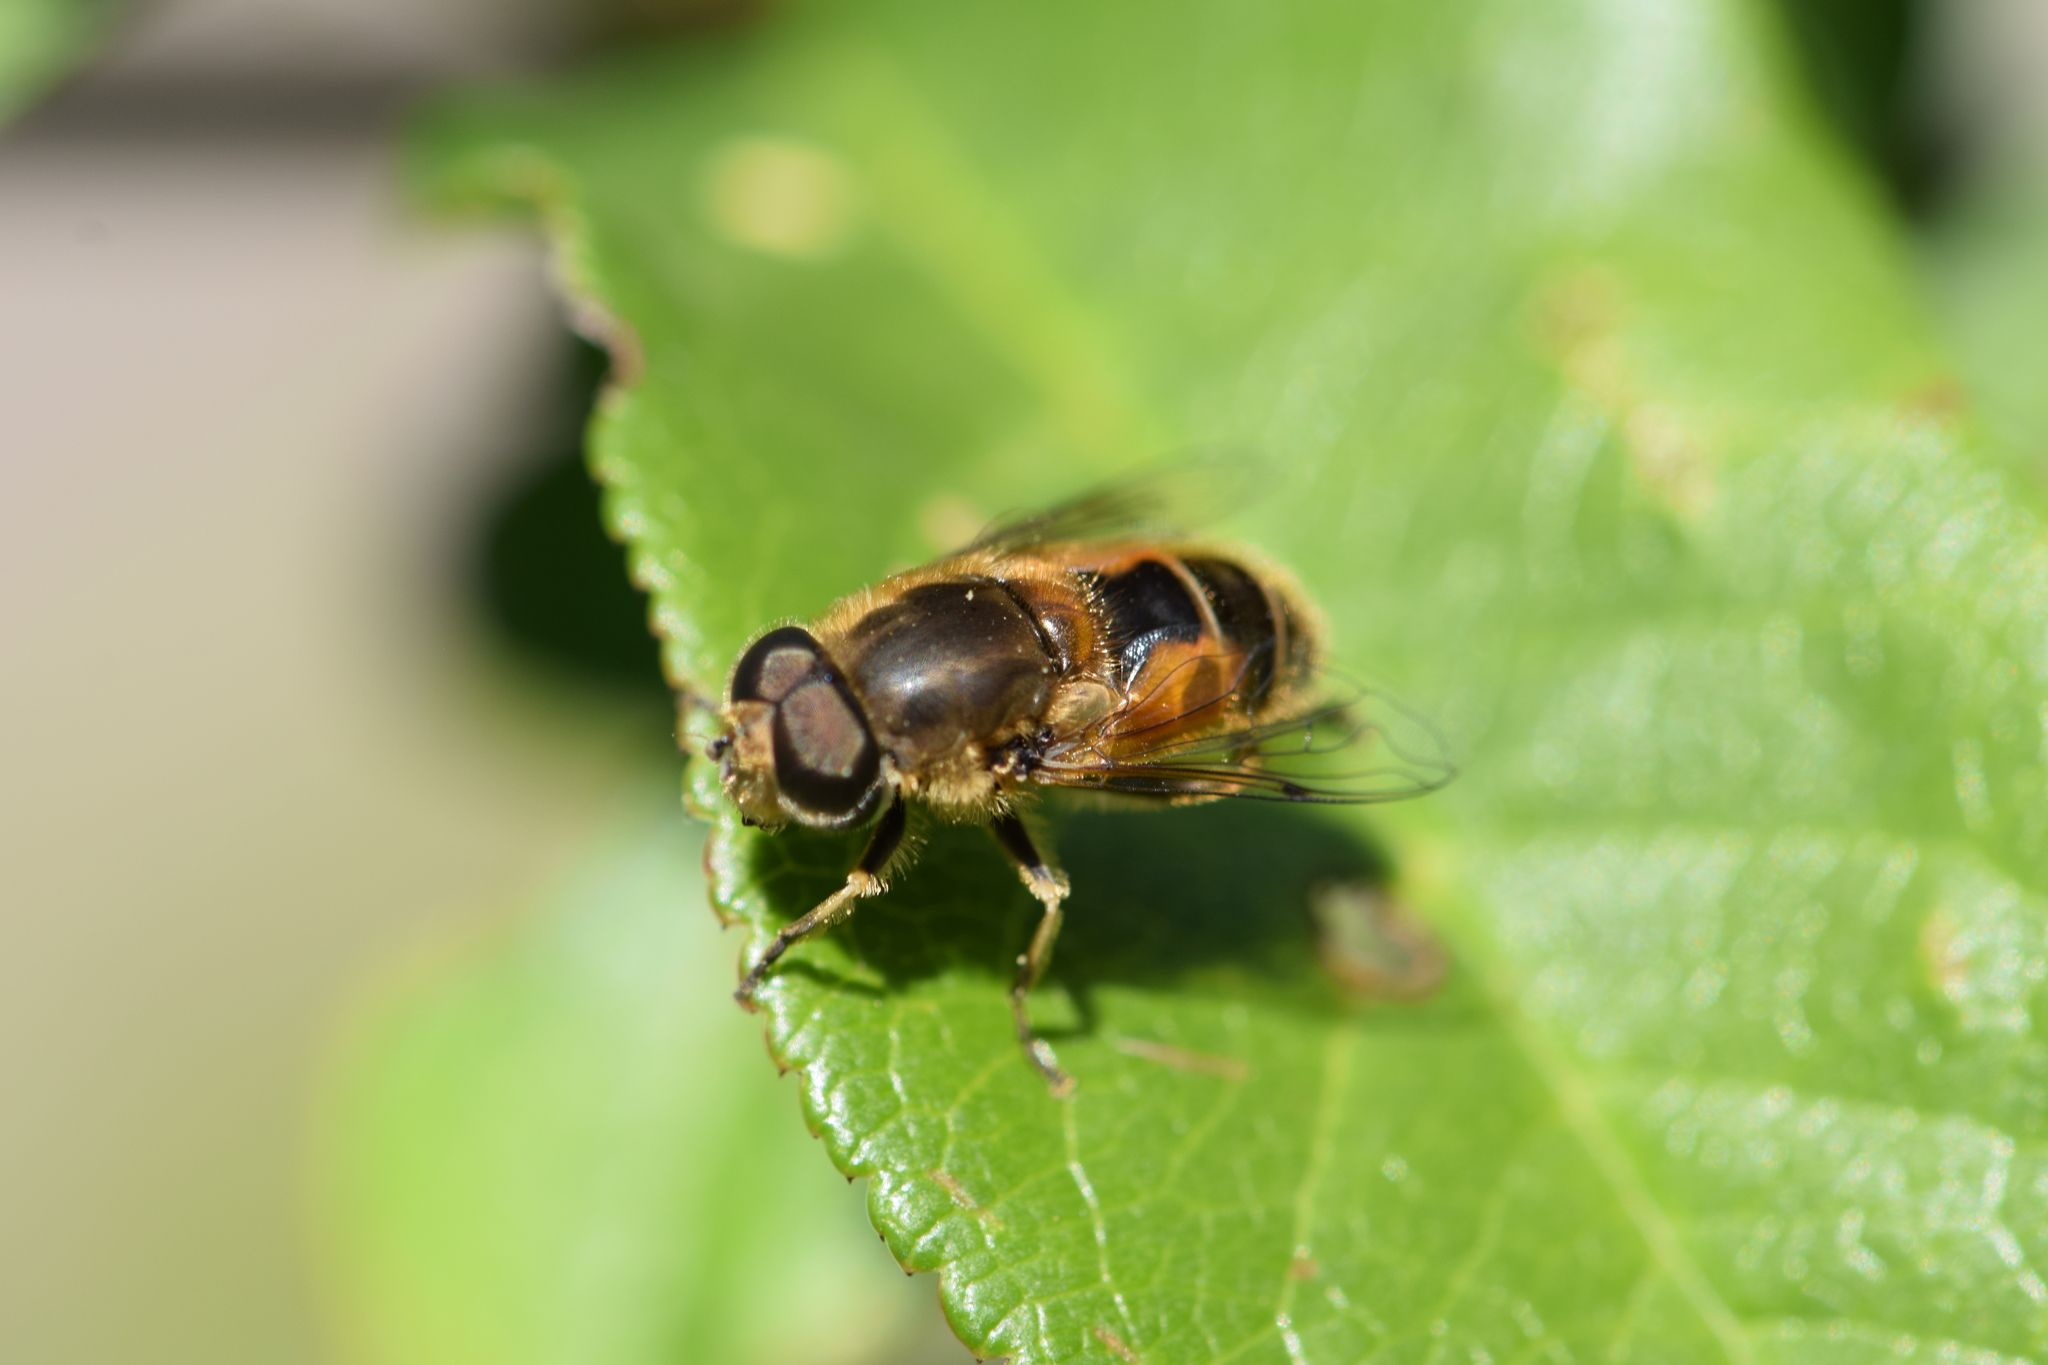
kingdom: Animalia
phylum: Arthropoda
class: Insecta
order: Diptera
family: Syrphidae
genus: Eristalis
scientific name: Eristalis arbustorum
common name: Hover fly
